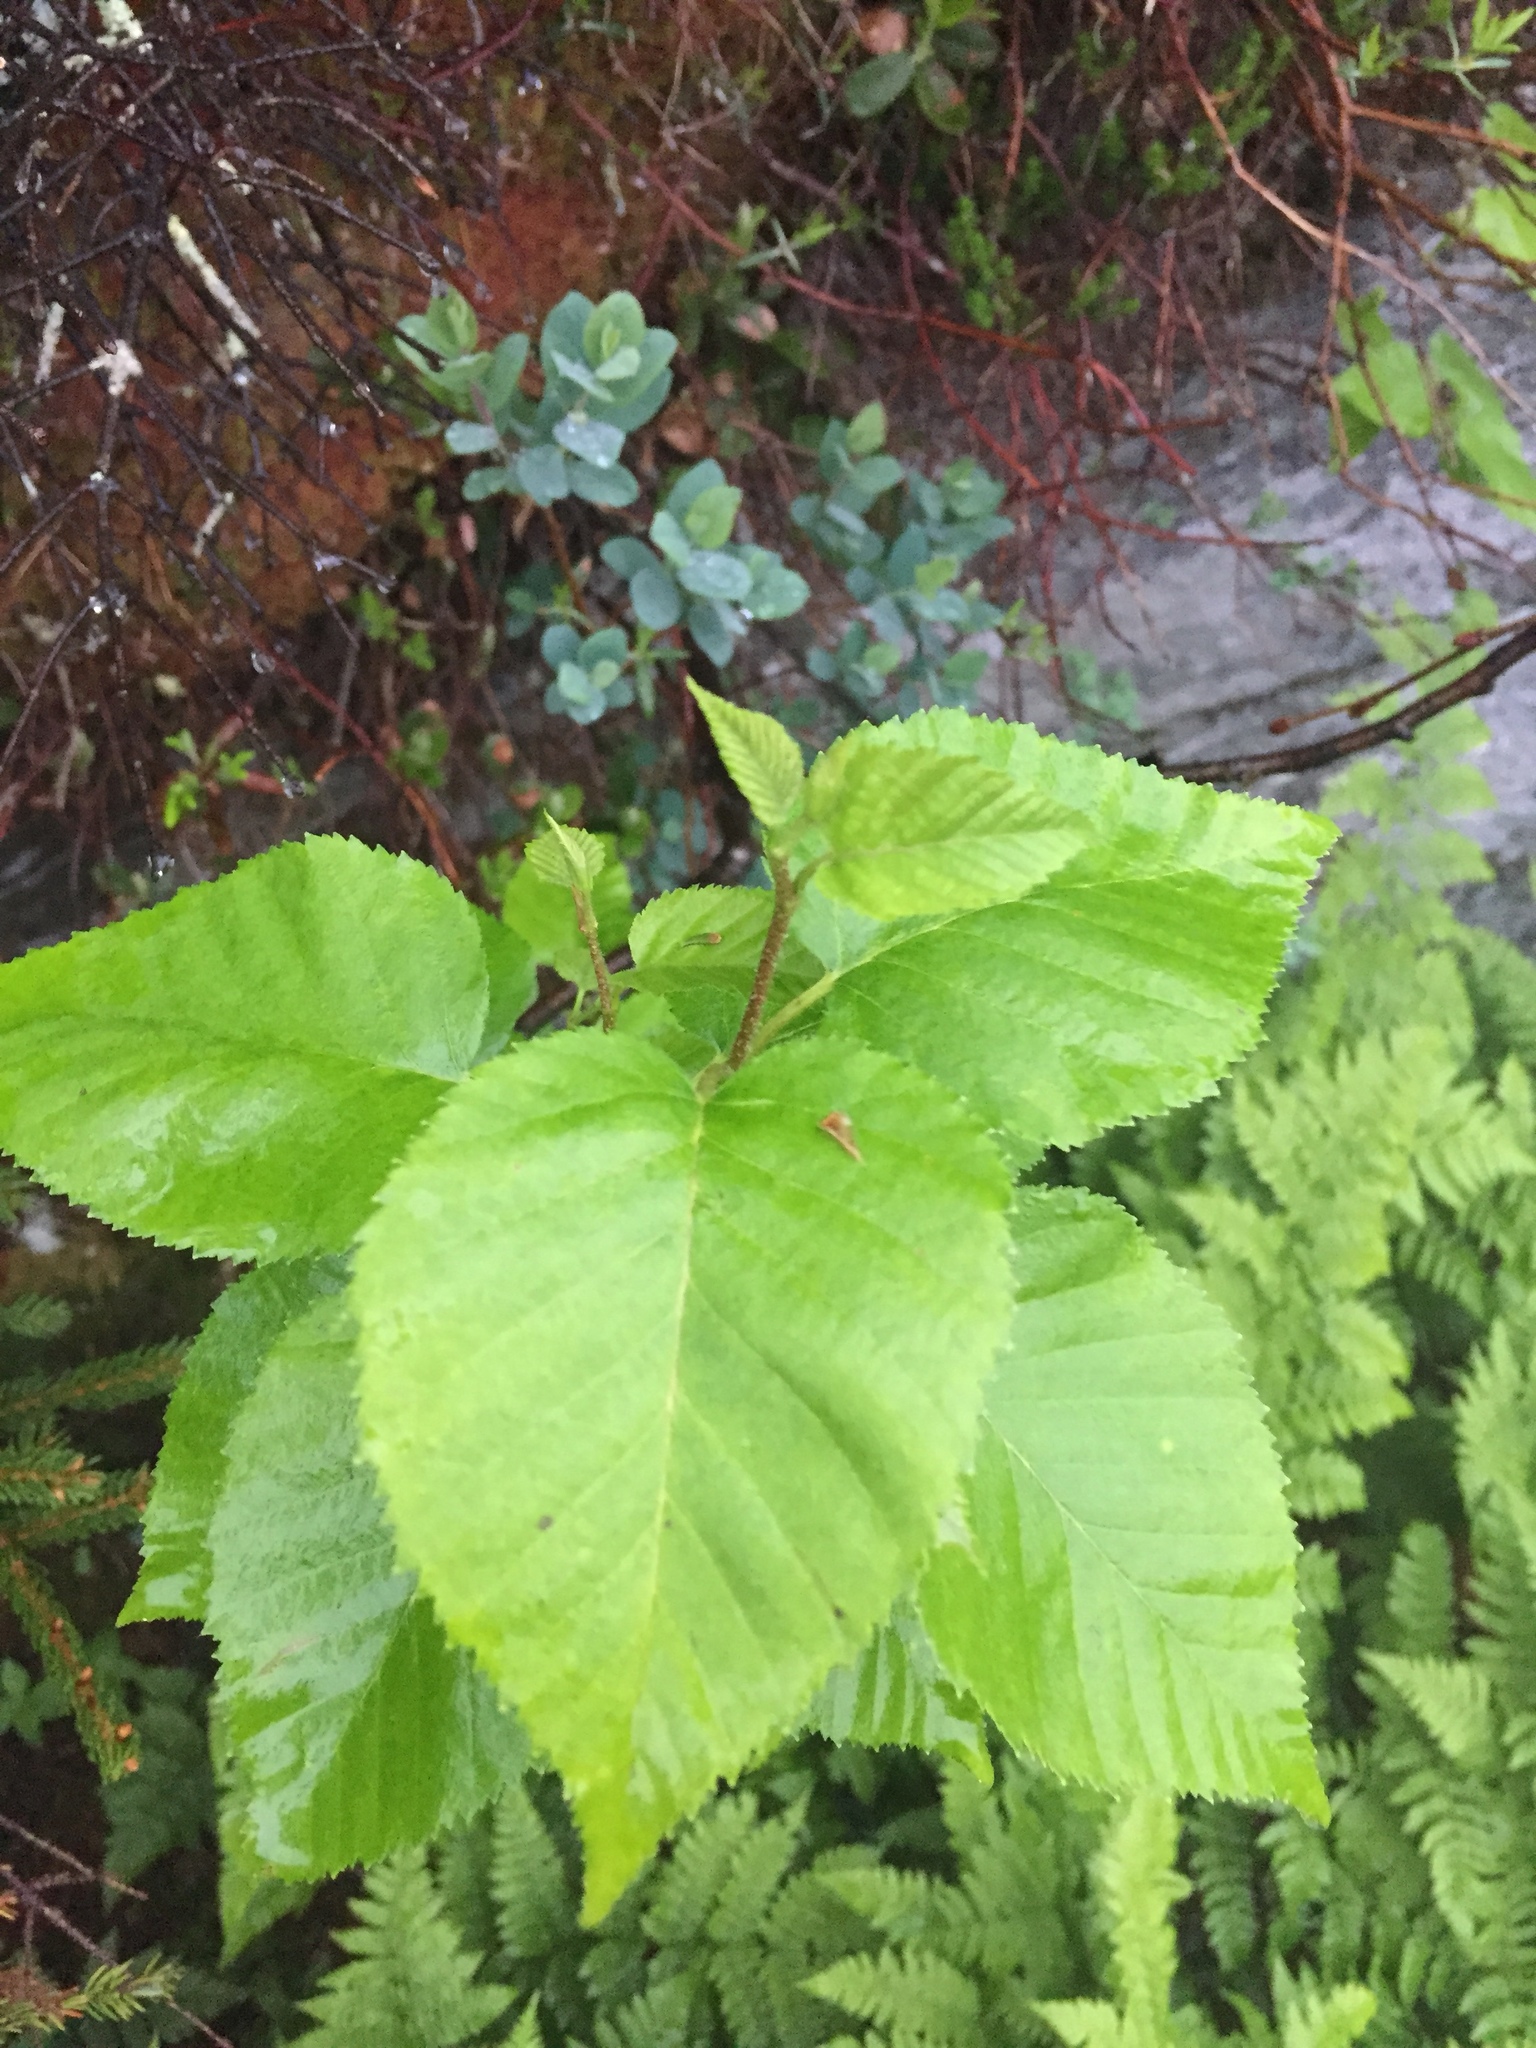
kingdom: Plantae
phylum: Tracheophyta
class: Magnoliopsida
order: Fagales
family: Betulaceae
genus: Betula
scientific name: Betula cordifolia
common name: Mountain white birch
